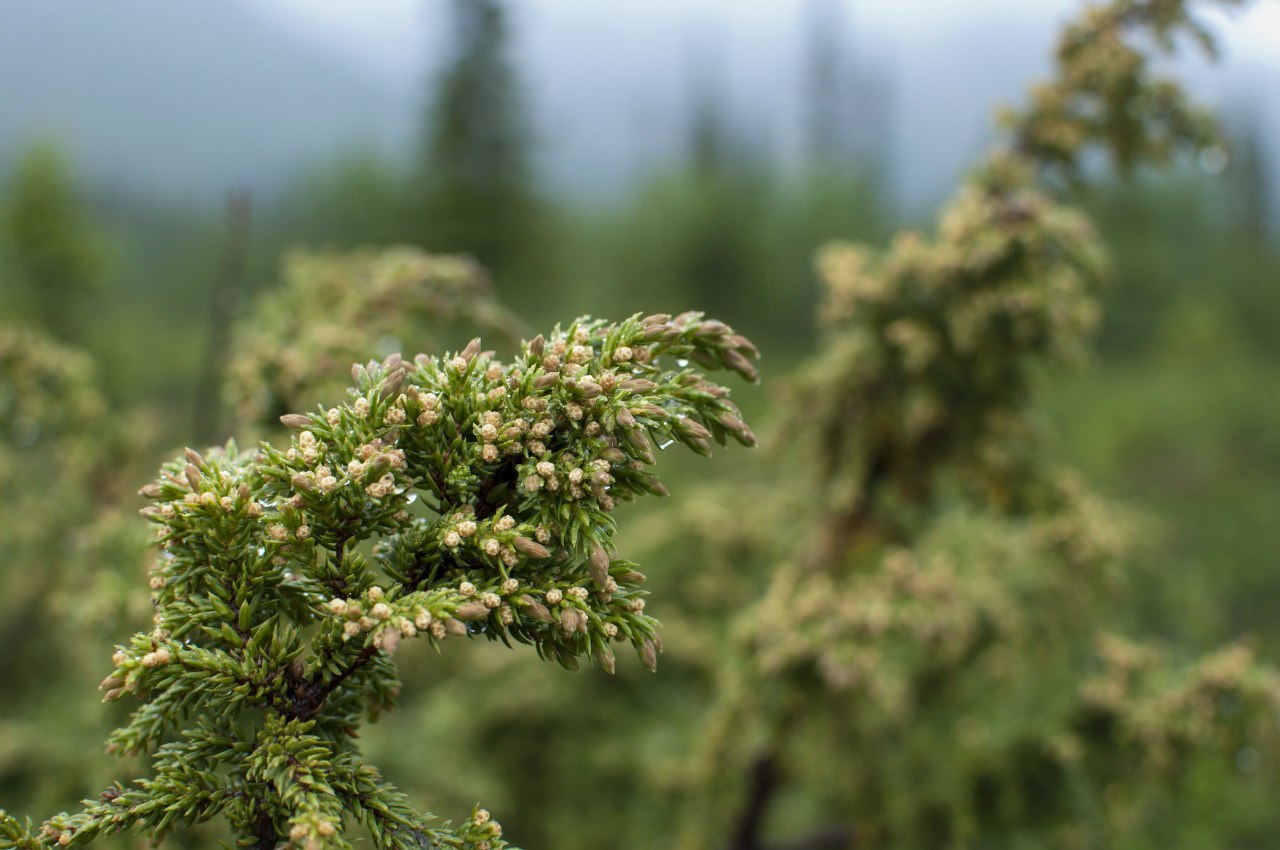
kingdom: Plantae
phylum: Tracheophyta
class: Pinopsida
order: Pinales
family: Cupressaceae
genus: Juniperus
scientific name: Juniperus communis
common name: Common juniper
